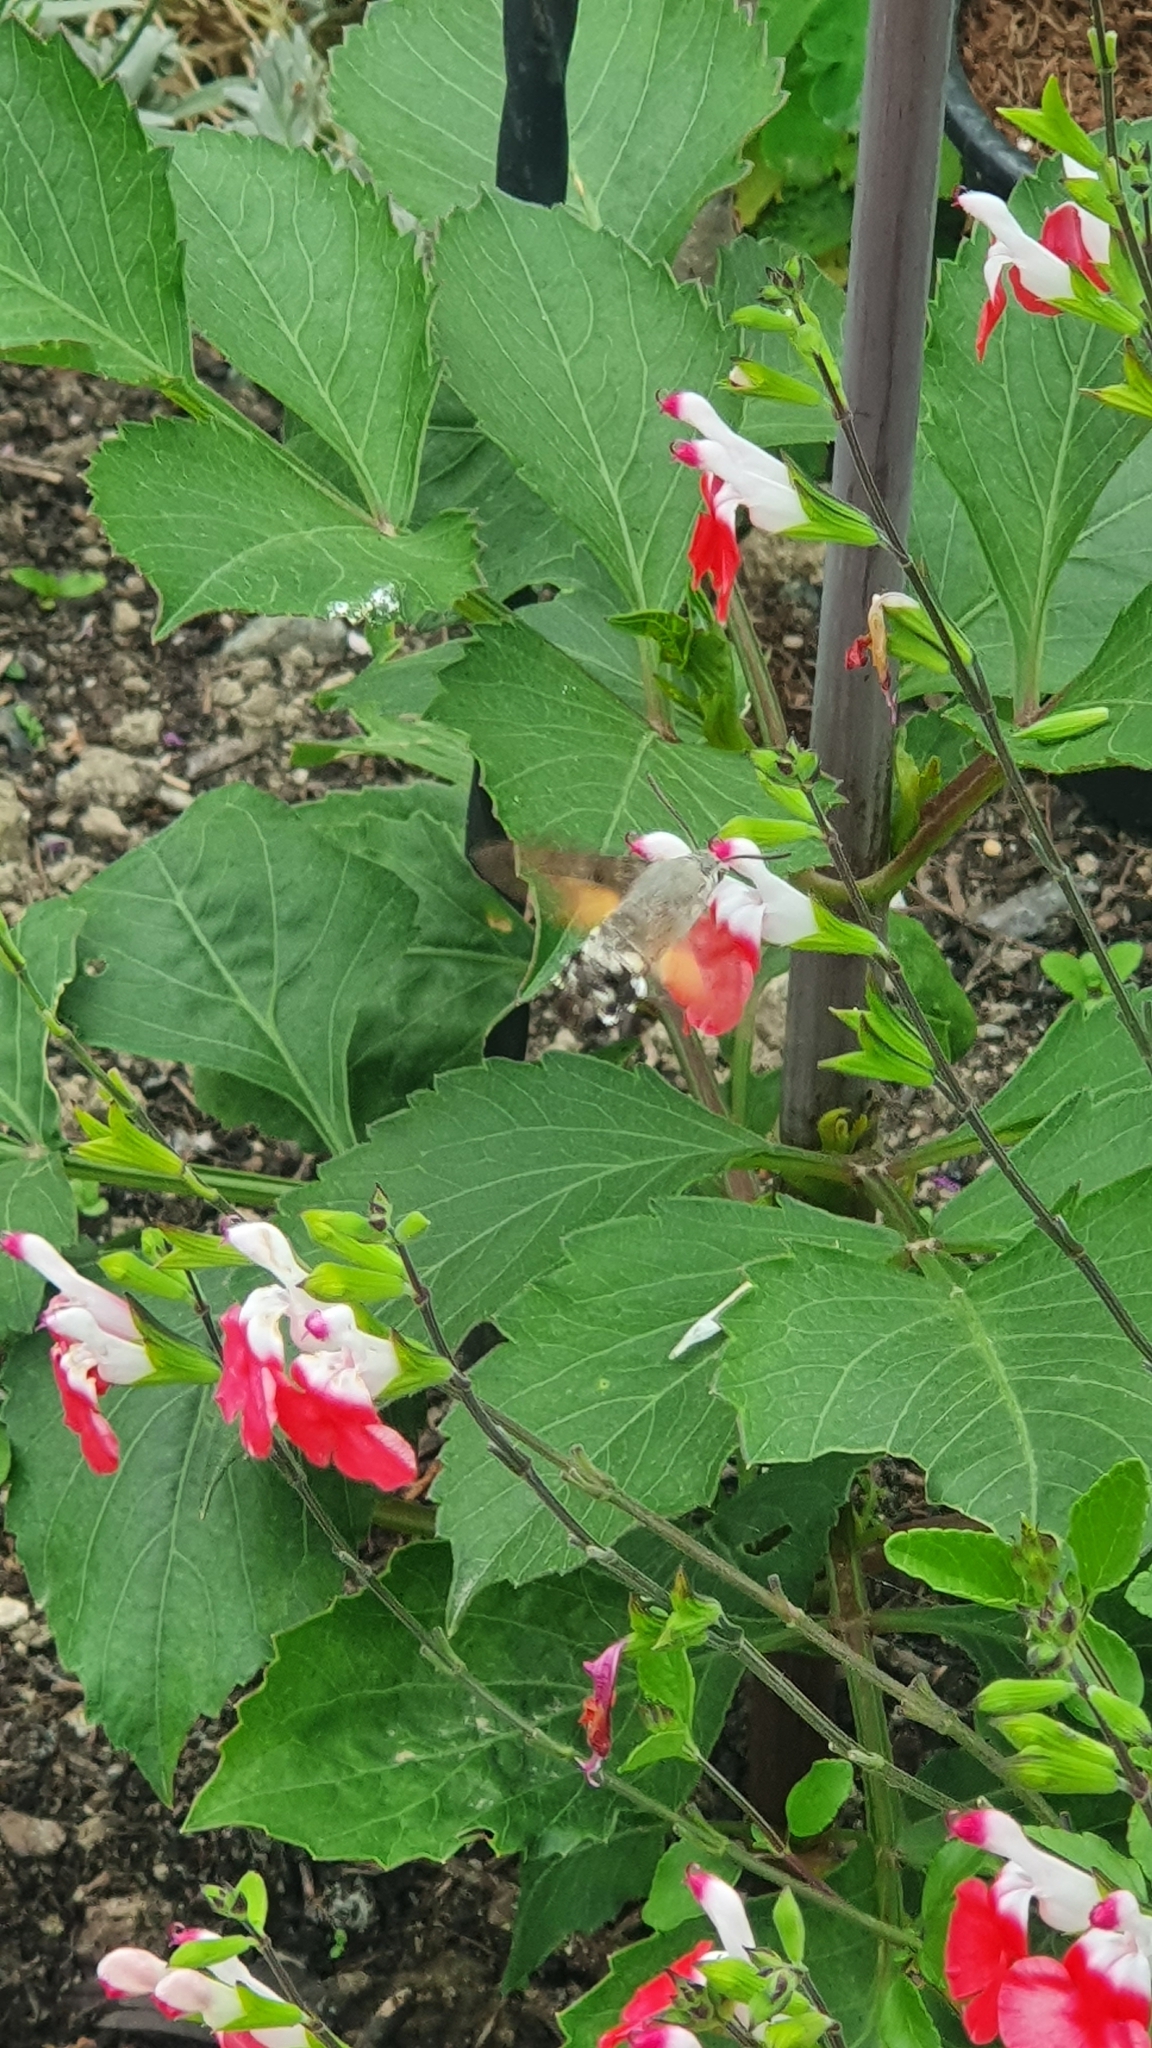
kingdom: Animalia
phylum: Arthropoda
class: Insecta
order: Lepidoptera
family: Sphingidae
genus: Macroglossum
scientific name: Macroglossum stellatarum
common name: Humming-bird hawk-moth
